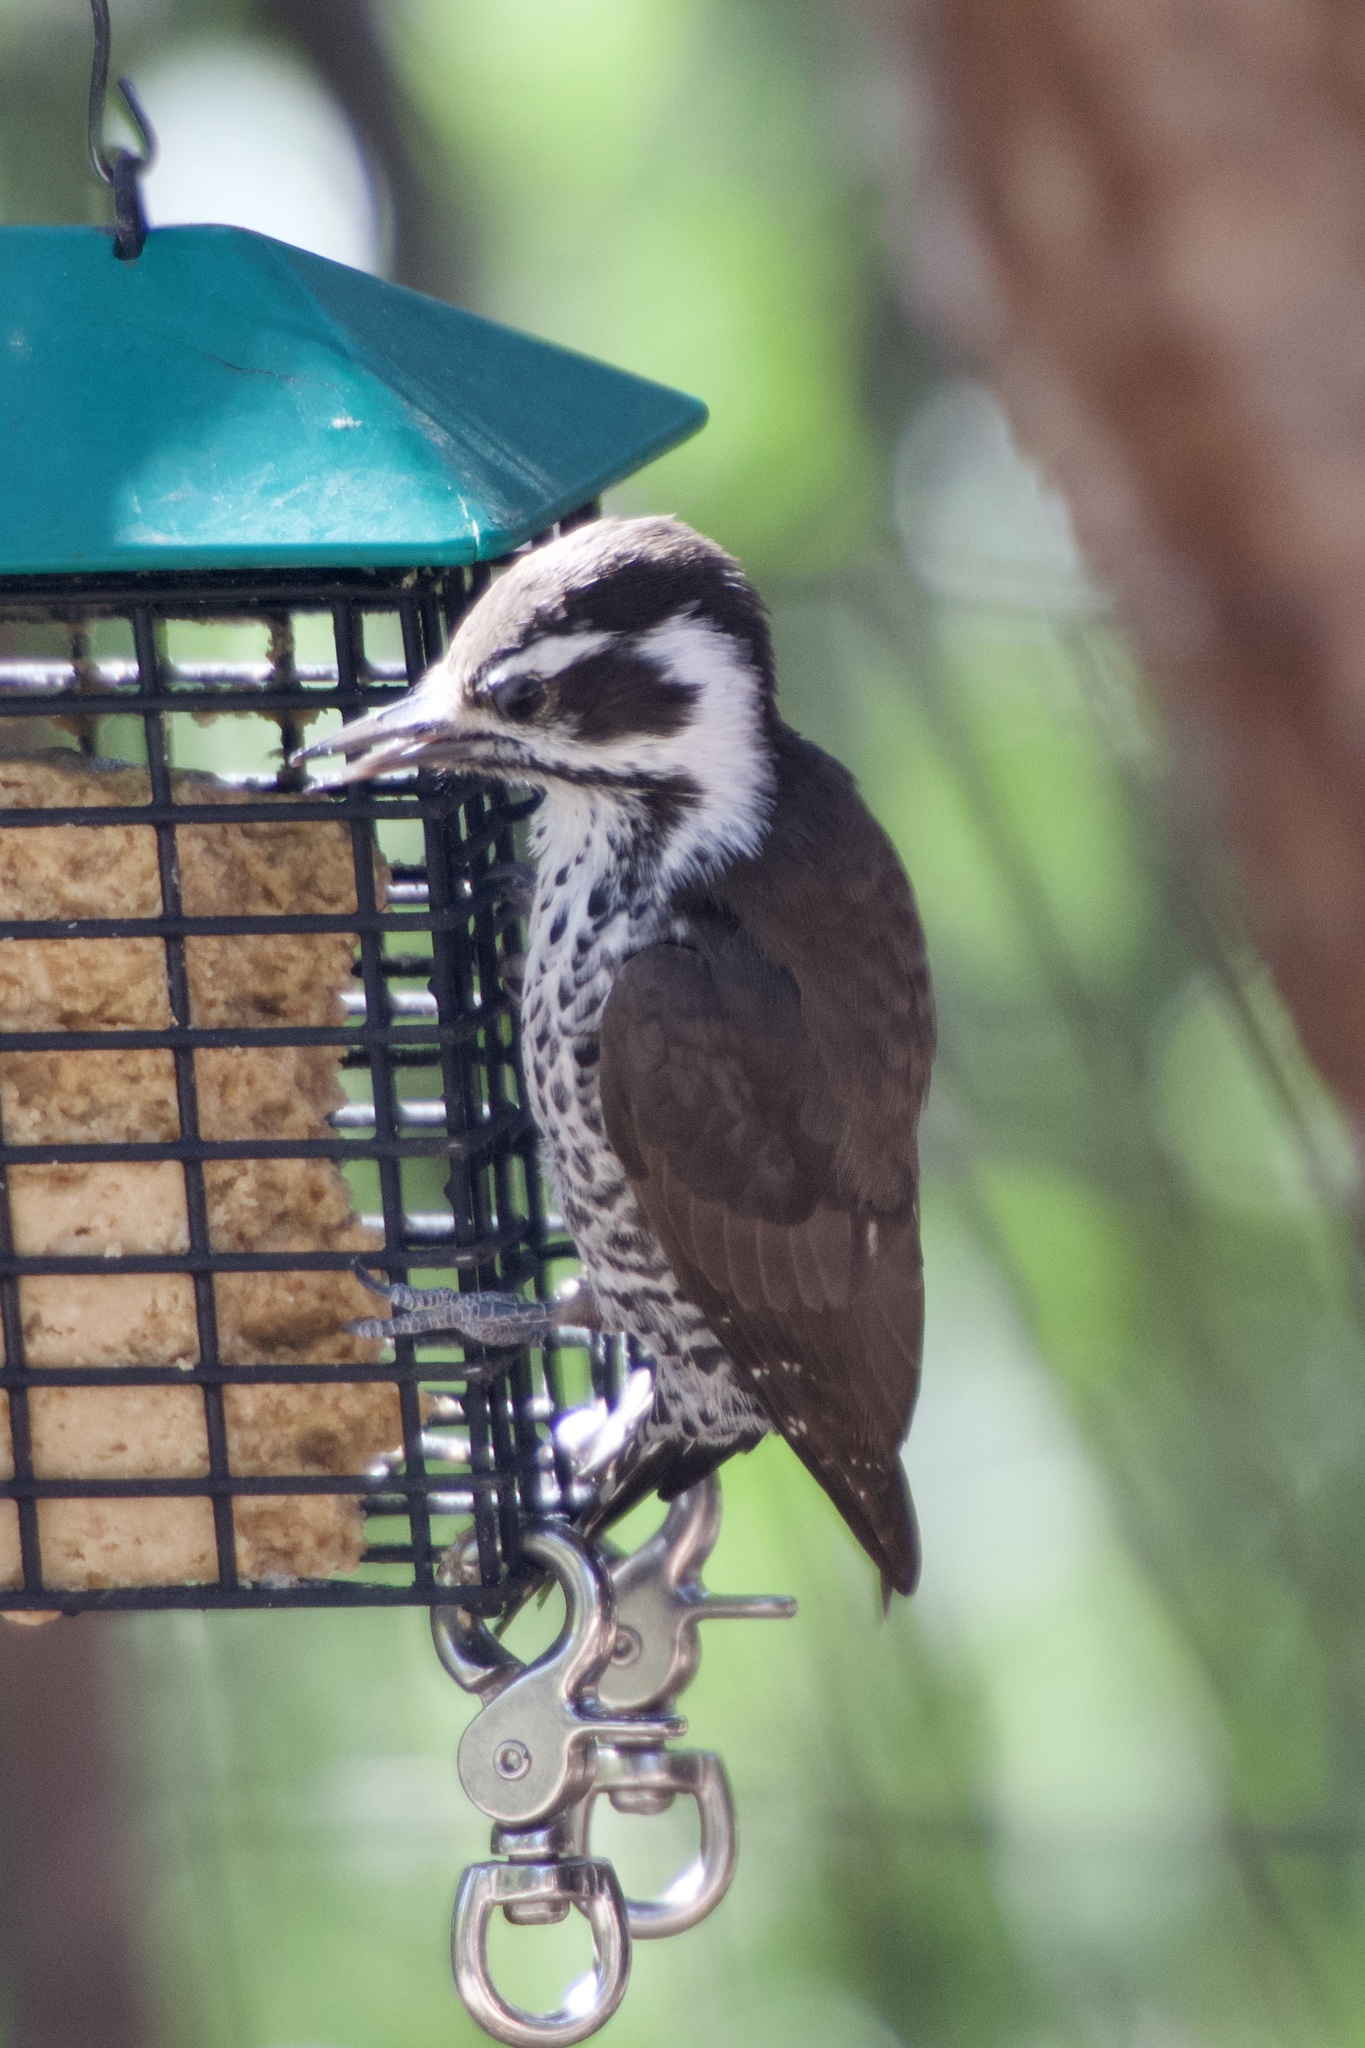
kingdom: Animalia
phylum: Chordata
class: Aves
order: Piciformes
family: Picidae
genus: Leuconotopicus
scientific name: Leuconotopicus arizonae
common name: Arizona woodpecker
